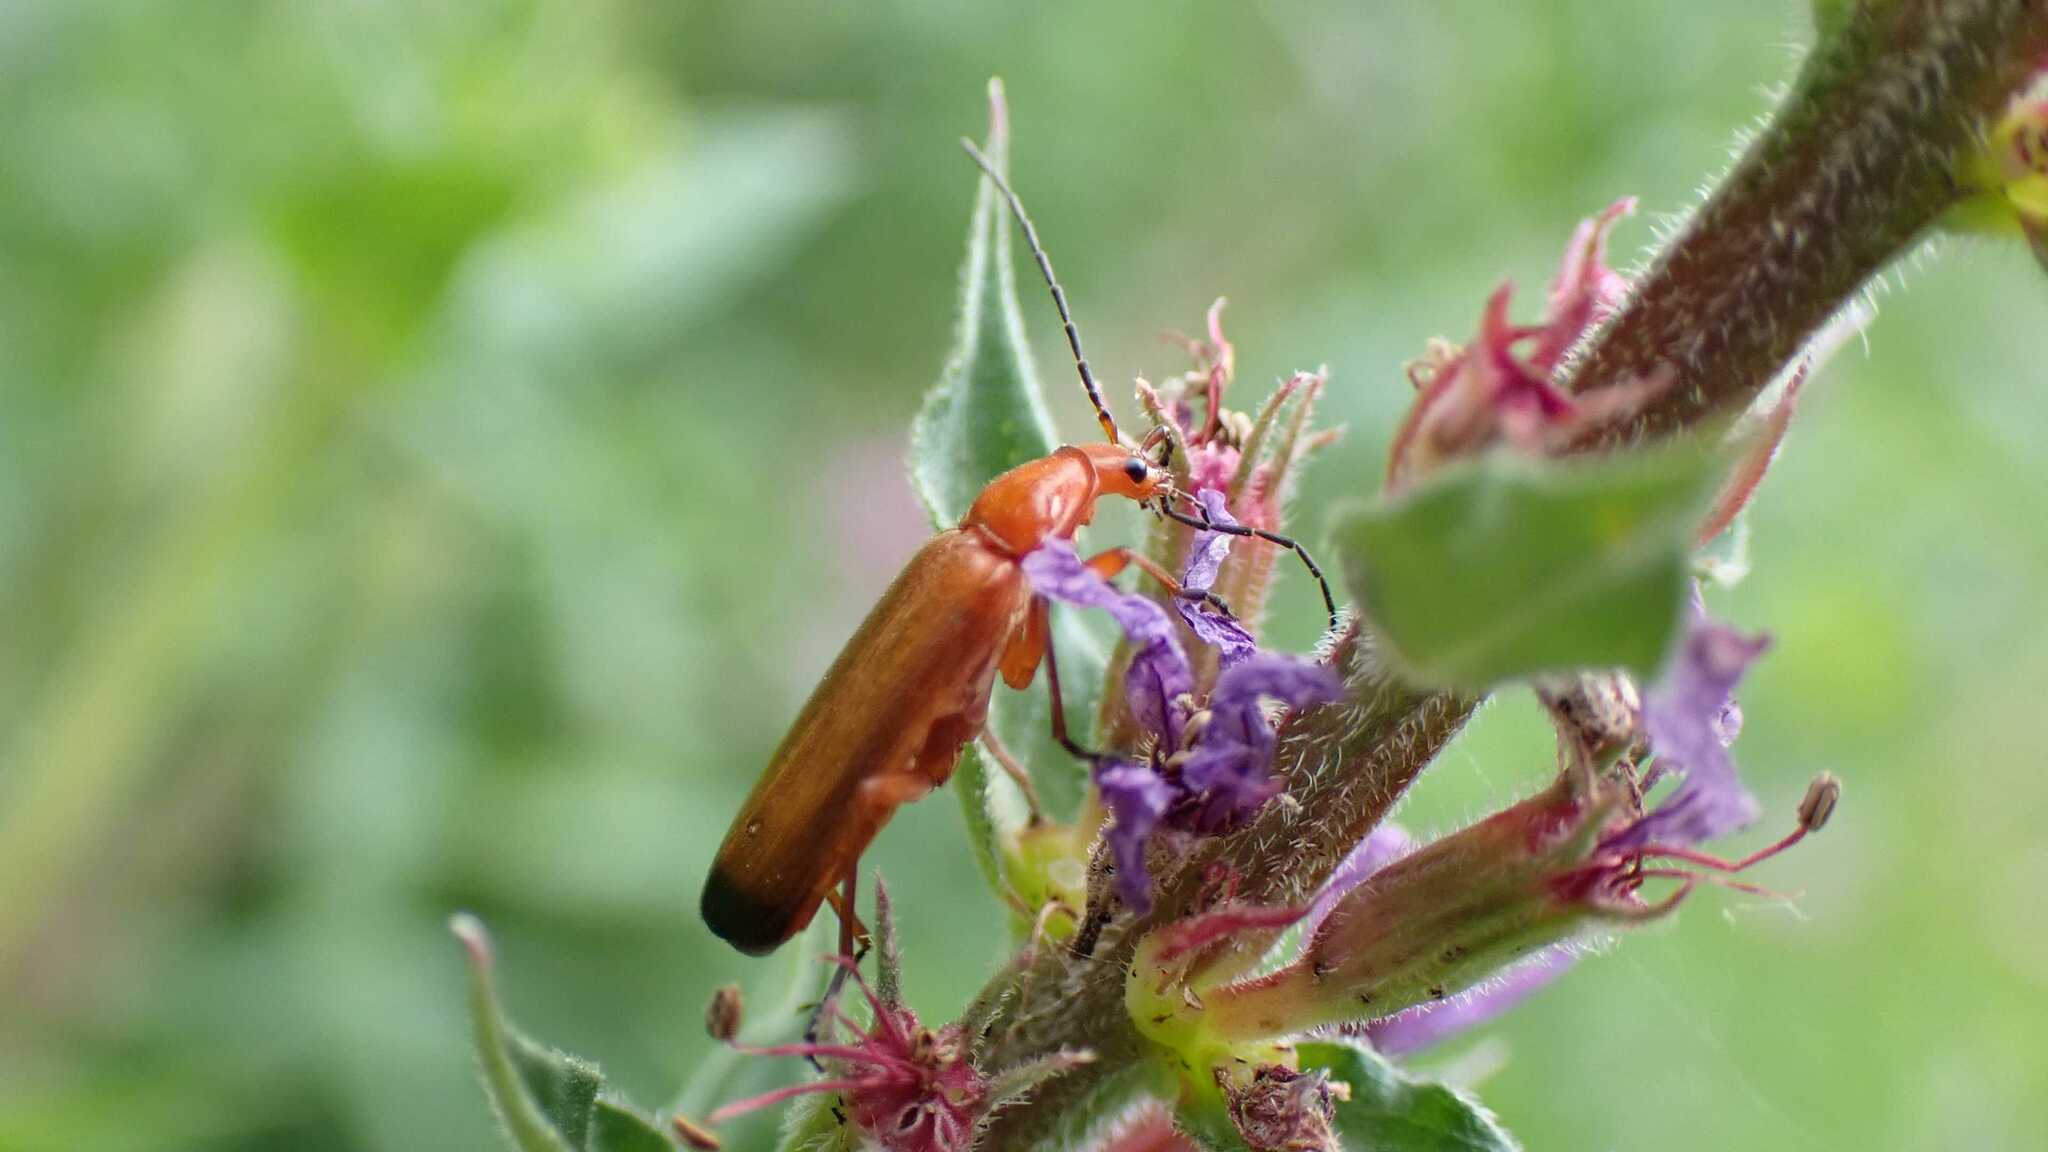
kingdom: Animalia
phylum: Arthropoda
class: Insecta
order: Coleoptera
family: Cantharidae
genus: Rhagonycha
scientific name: Rhagonycha fulva
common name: Common red soldier beetle
